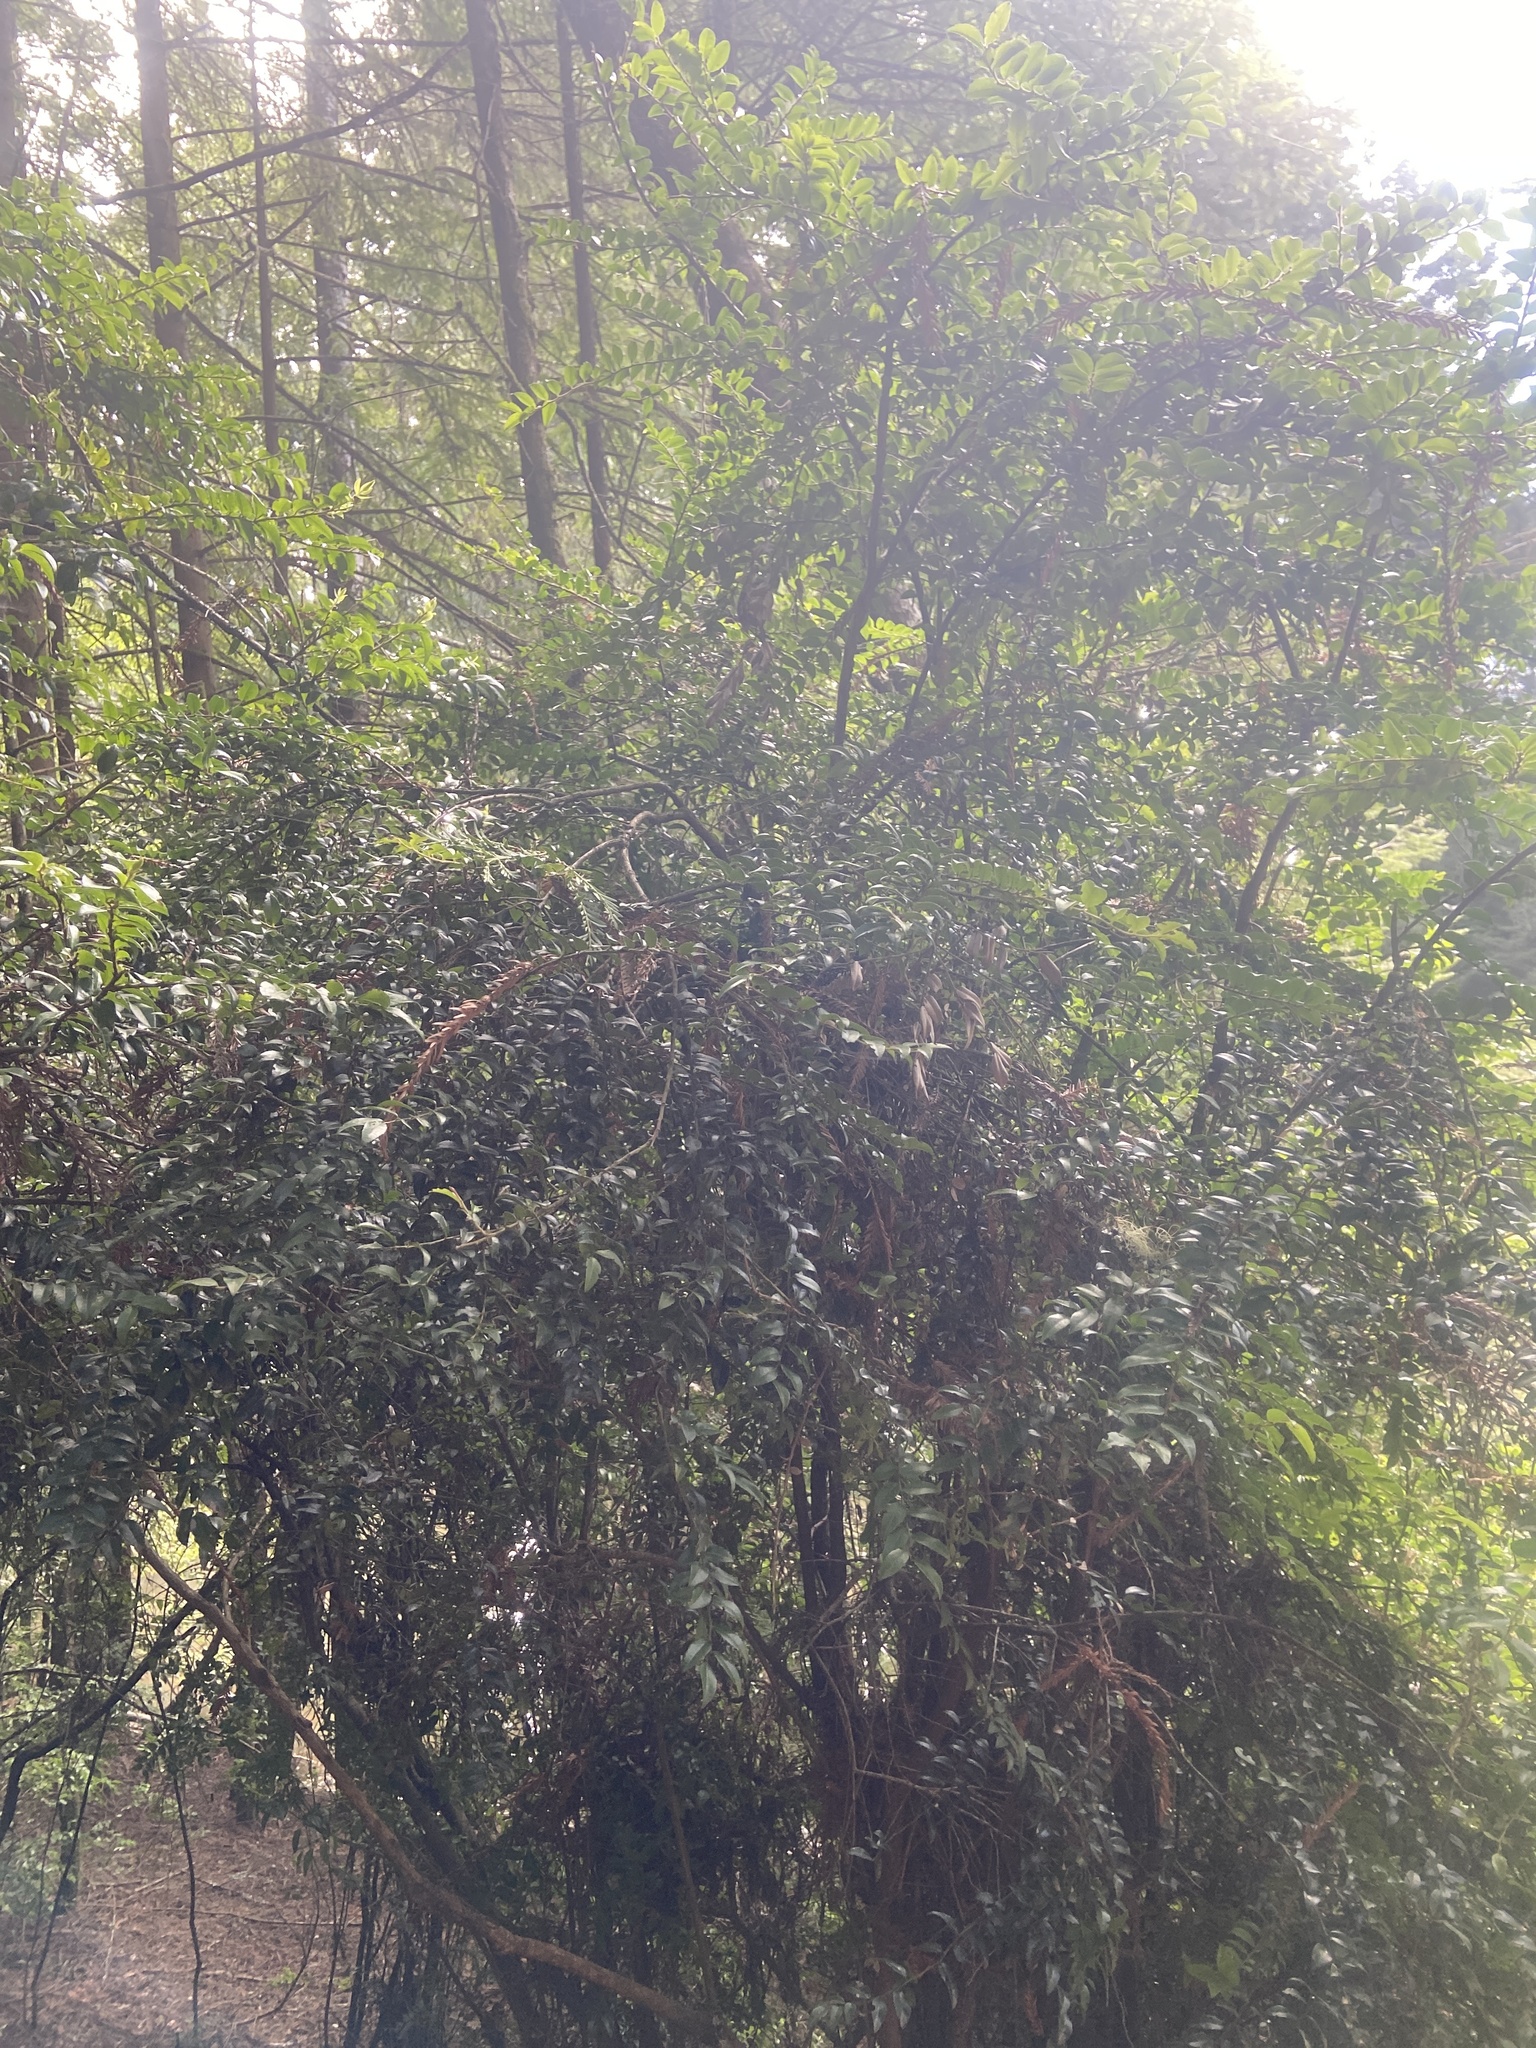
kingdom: Plantae
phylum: Tracheophyta
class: Magnoliopsida
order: Ericales
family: Ericaceae
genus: Vaccinium
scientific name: Vaccinium ovatum
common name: California-huckleberry
